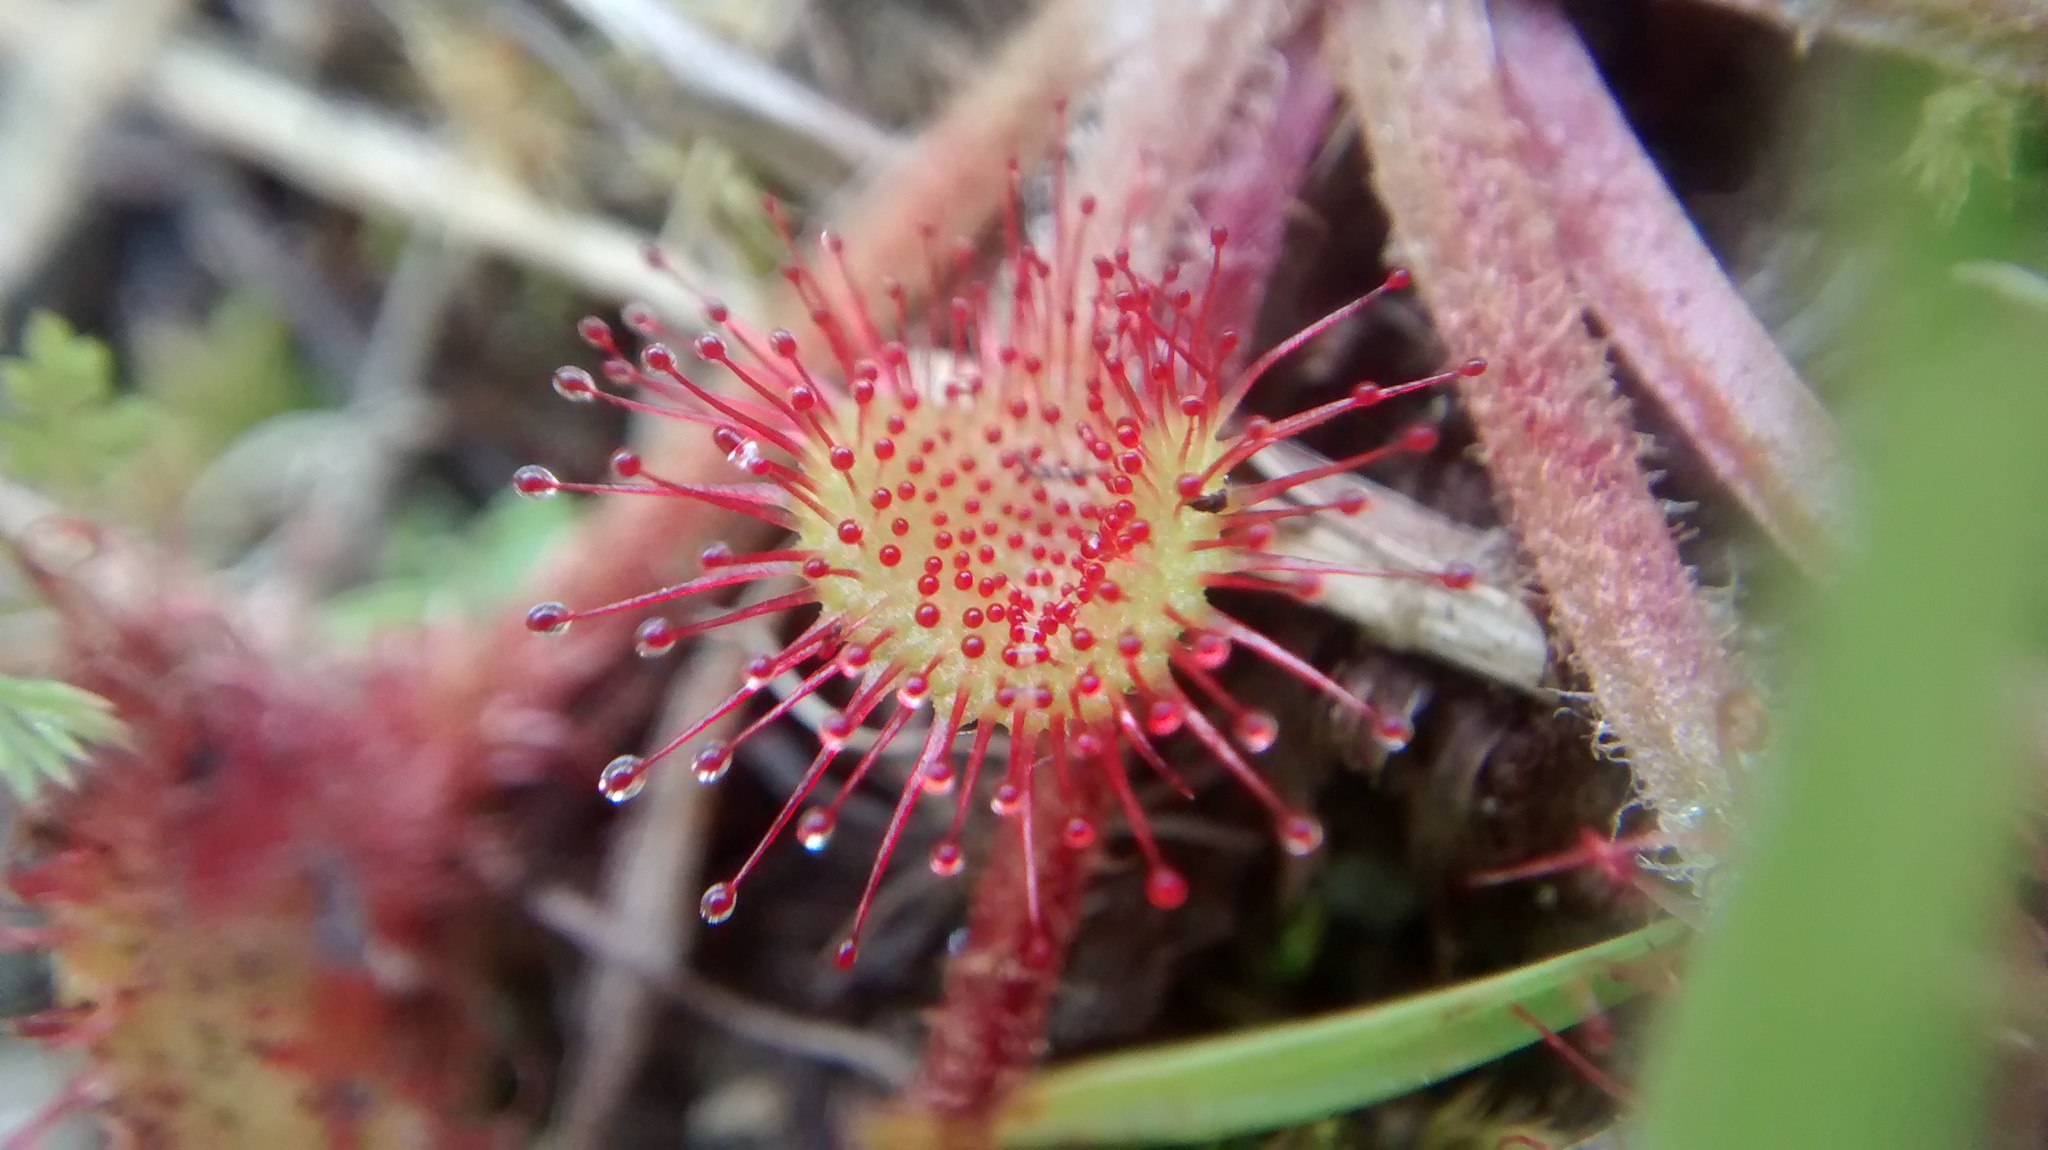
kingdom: Plantae
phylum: Tracheophyta
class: Magnoliopsida
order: Caryophyllales
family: Droseraceae
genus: Drosera
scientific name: Drosera rotundifolia
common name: Round-leaved sundew
